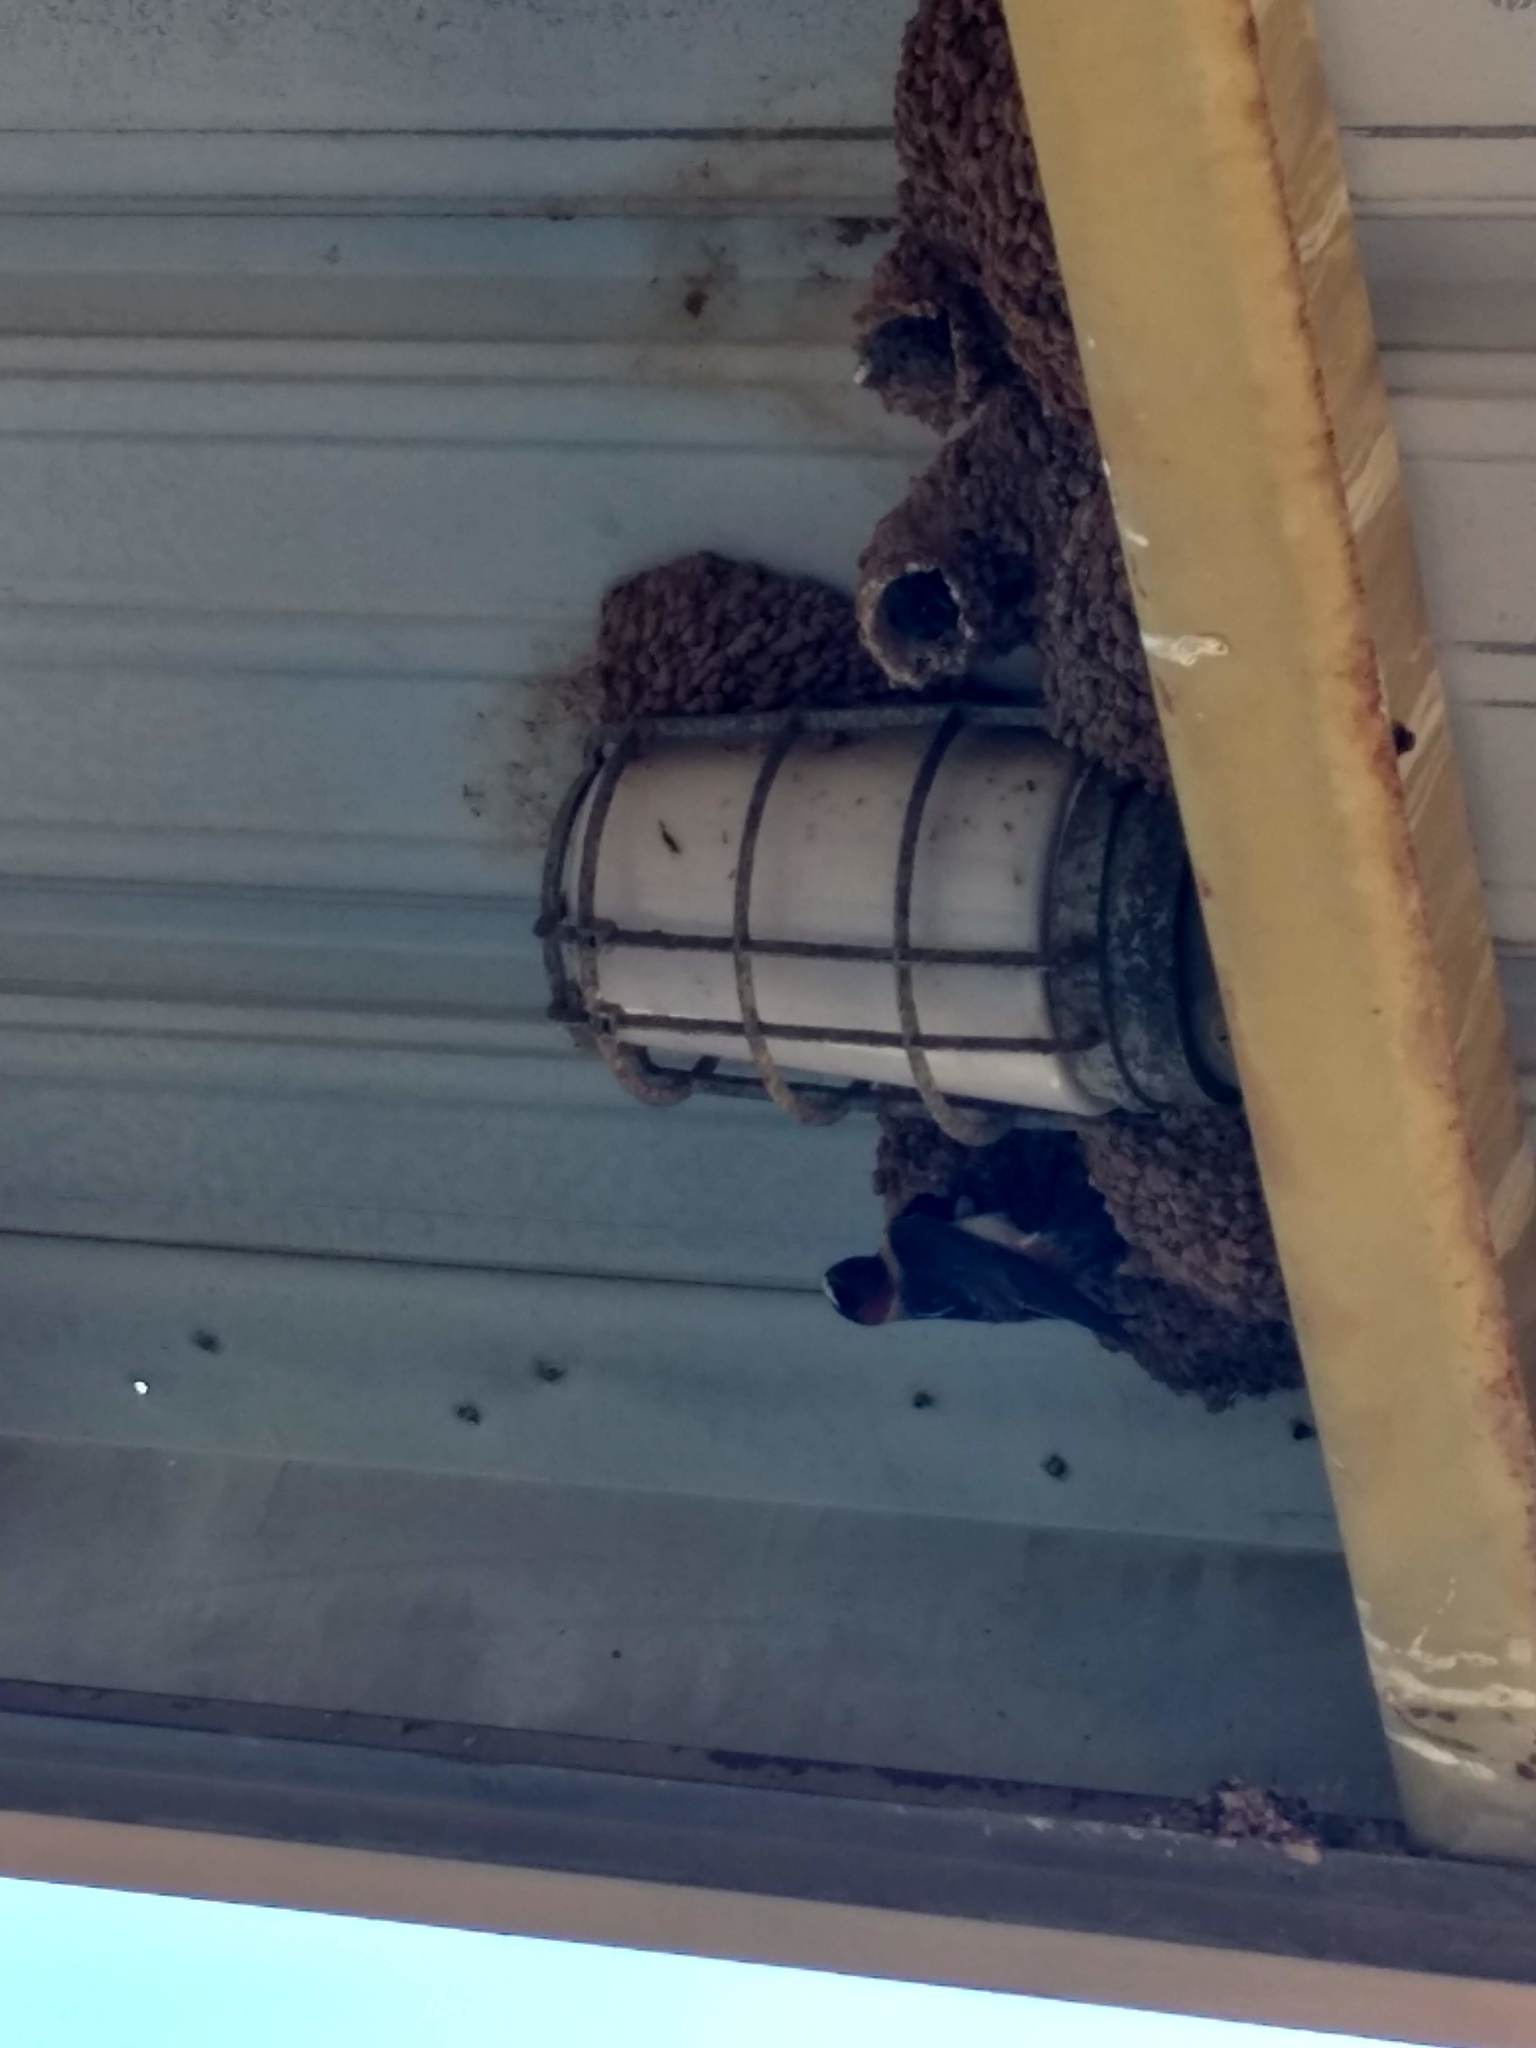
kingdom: Animalia
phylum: Chordata
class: Aves
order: Passeriformes
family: Hirundinidae
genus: Petrochelidon
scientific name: Petrochelidon pyrrhonota
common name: American cliff swallow
